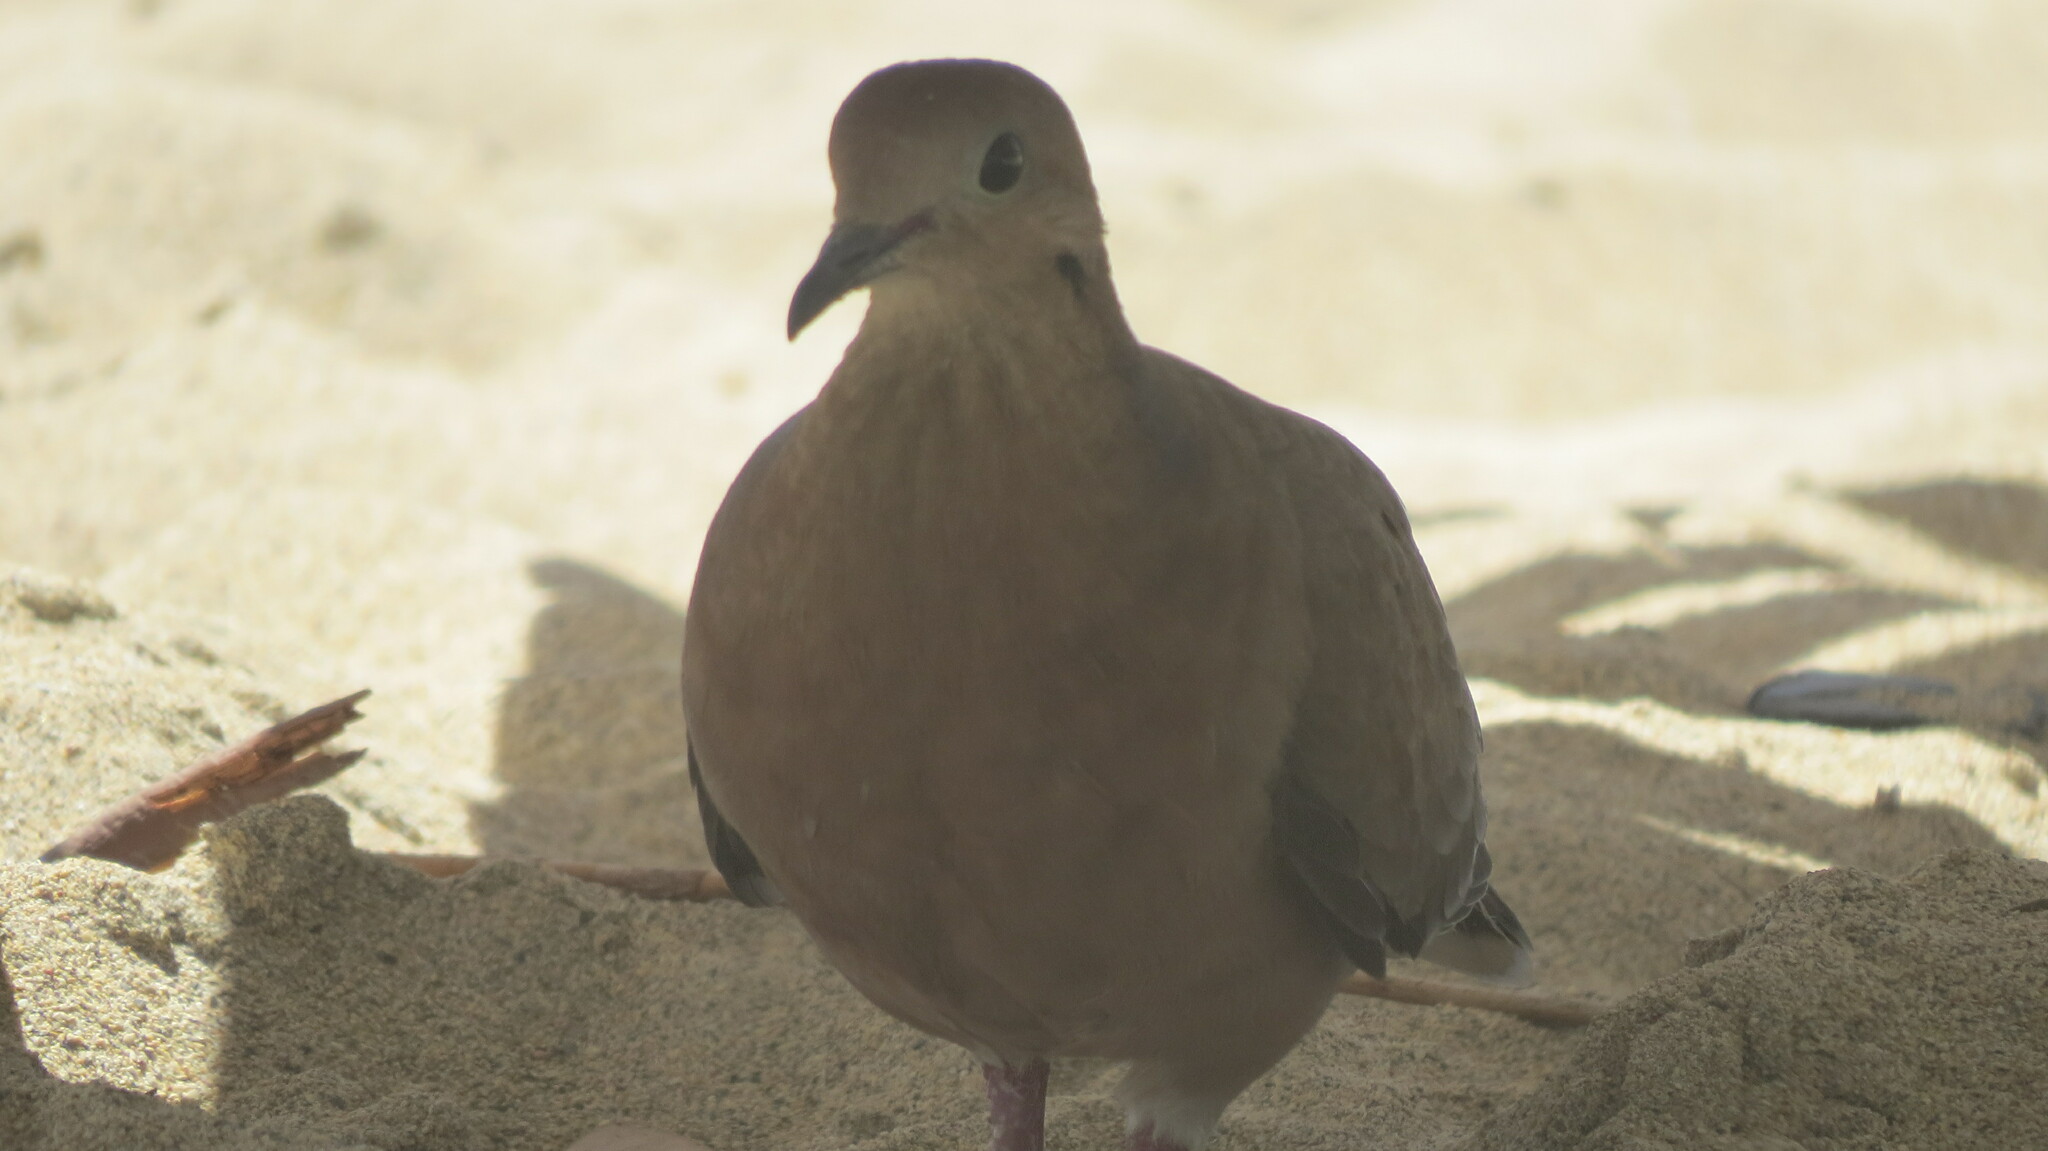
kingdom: Animalia
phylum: Chordata
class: Aves
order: Columbiformes
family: Columbidae
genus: Zenaida
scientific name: Zenaida aurita
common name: Zenaida dove
